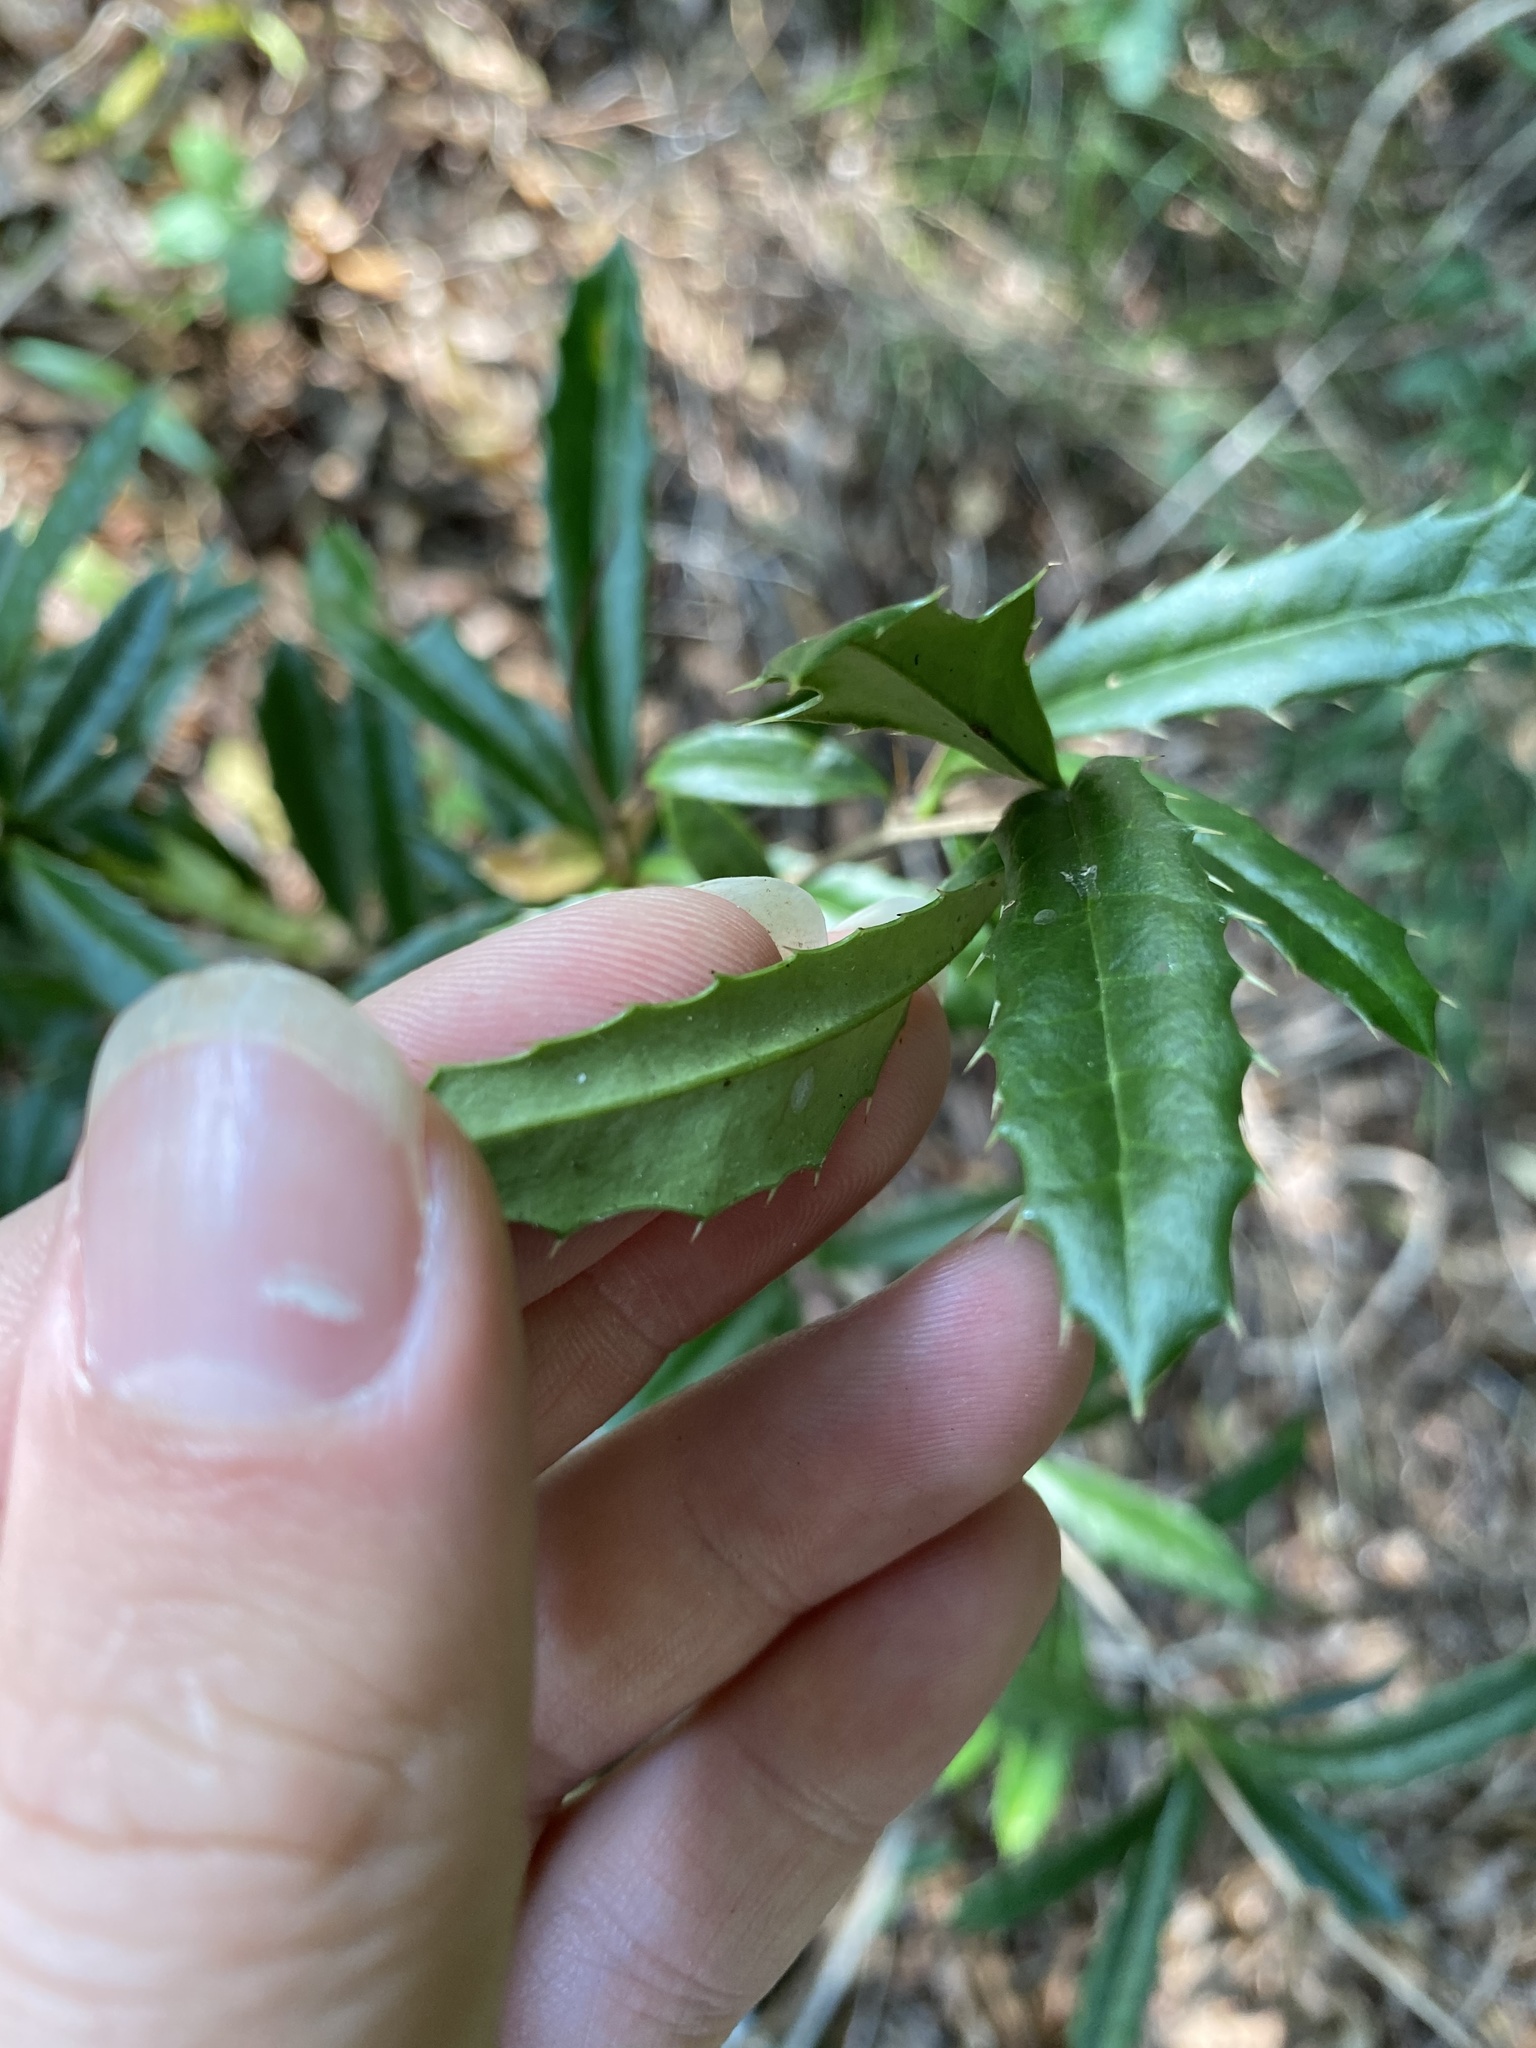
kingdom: Plantae
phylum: Tracheophyta
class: Magnoliopsida
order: Ranunculales
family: Berberidaceae
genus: Berberis
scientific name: Berberis julianae
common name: Wintergreen barberry
